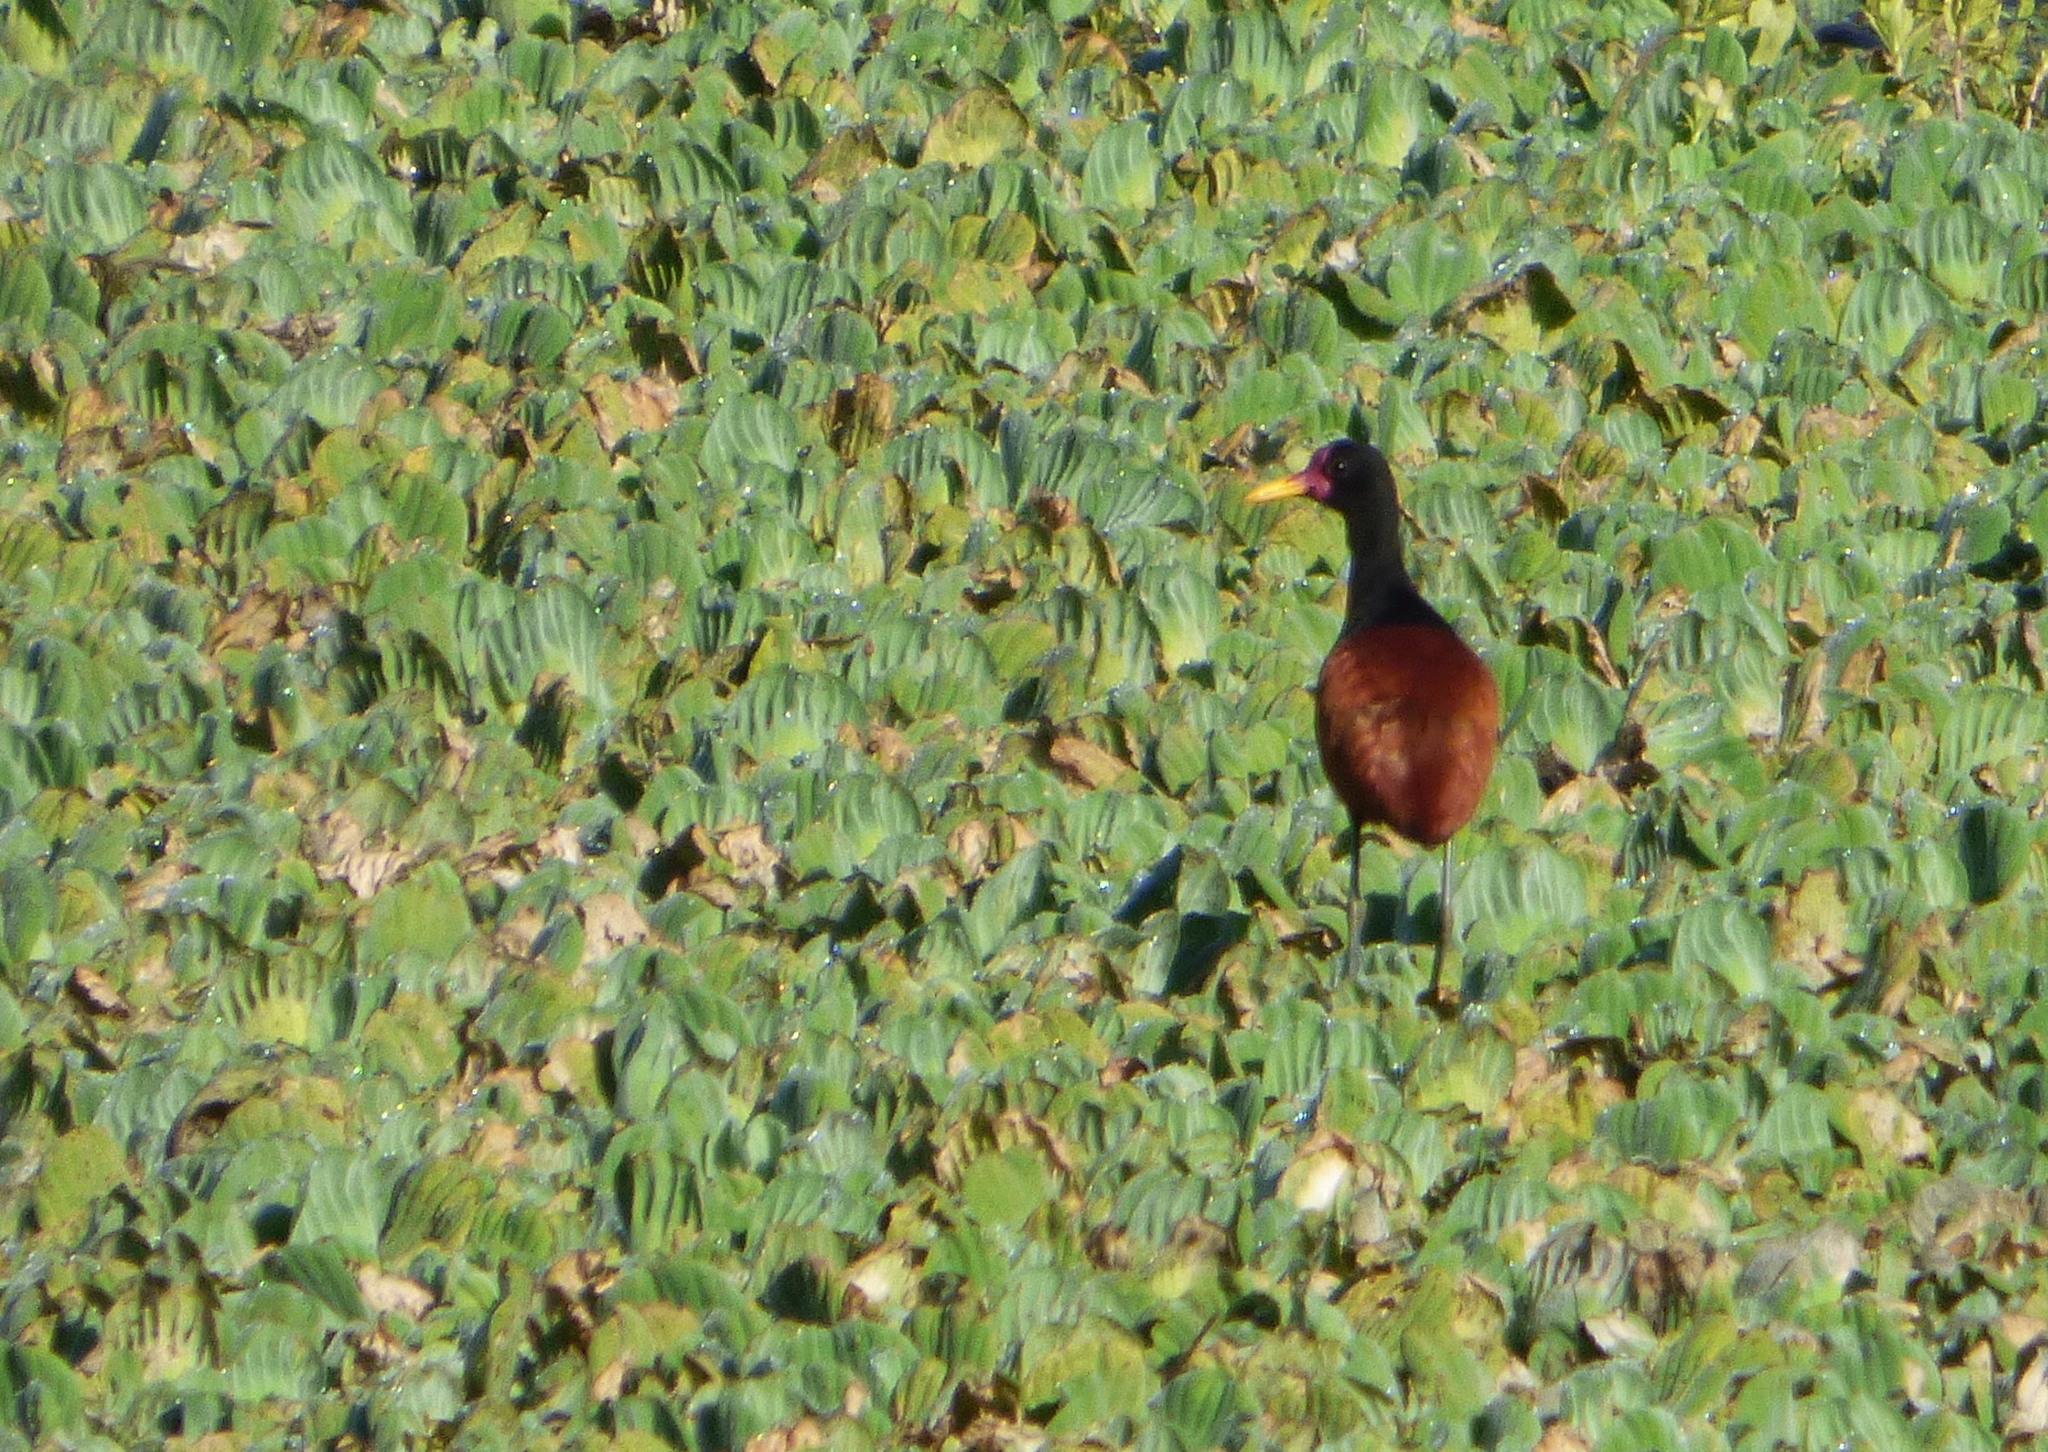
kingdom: Animalia
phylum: Chordata
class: Aves
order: Charadriiformes
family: Jacanidae
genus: Jacana
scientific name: Jacana jacana
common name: Wattled jacana
